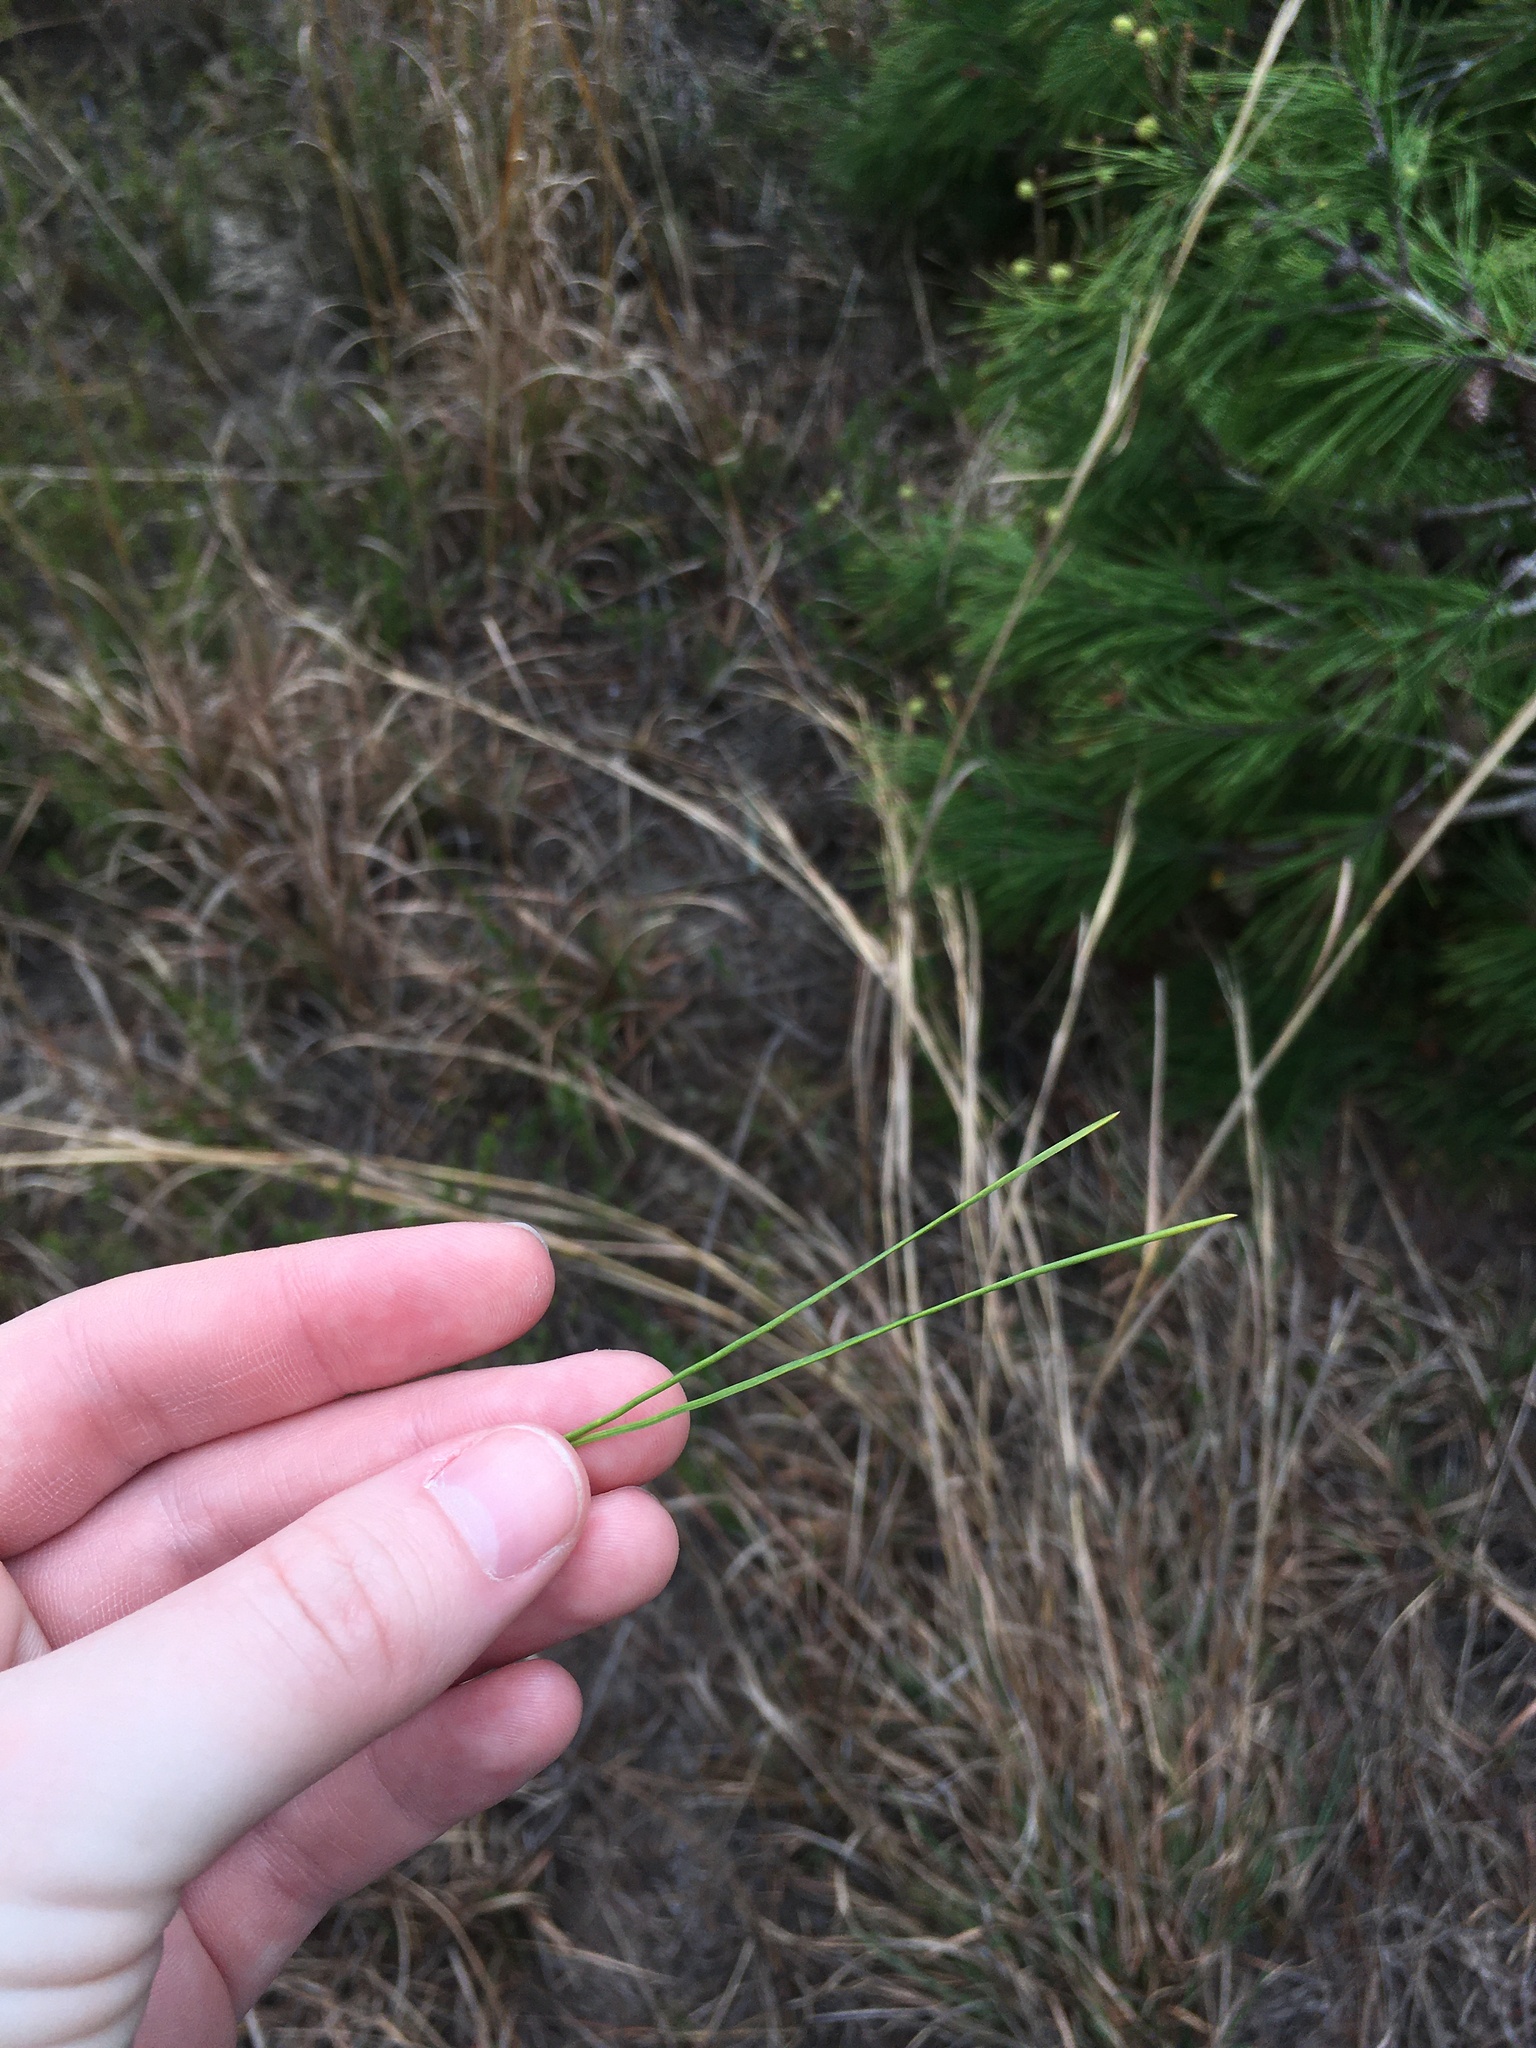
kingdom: Plantae
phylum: Tracheophyta
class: Pinopsida
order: Pinales
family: Pinaceae
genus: Pinus
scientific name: Pinus clausa
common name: Sand pine
